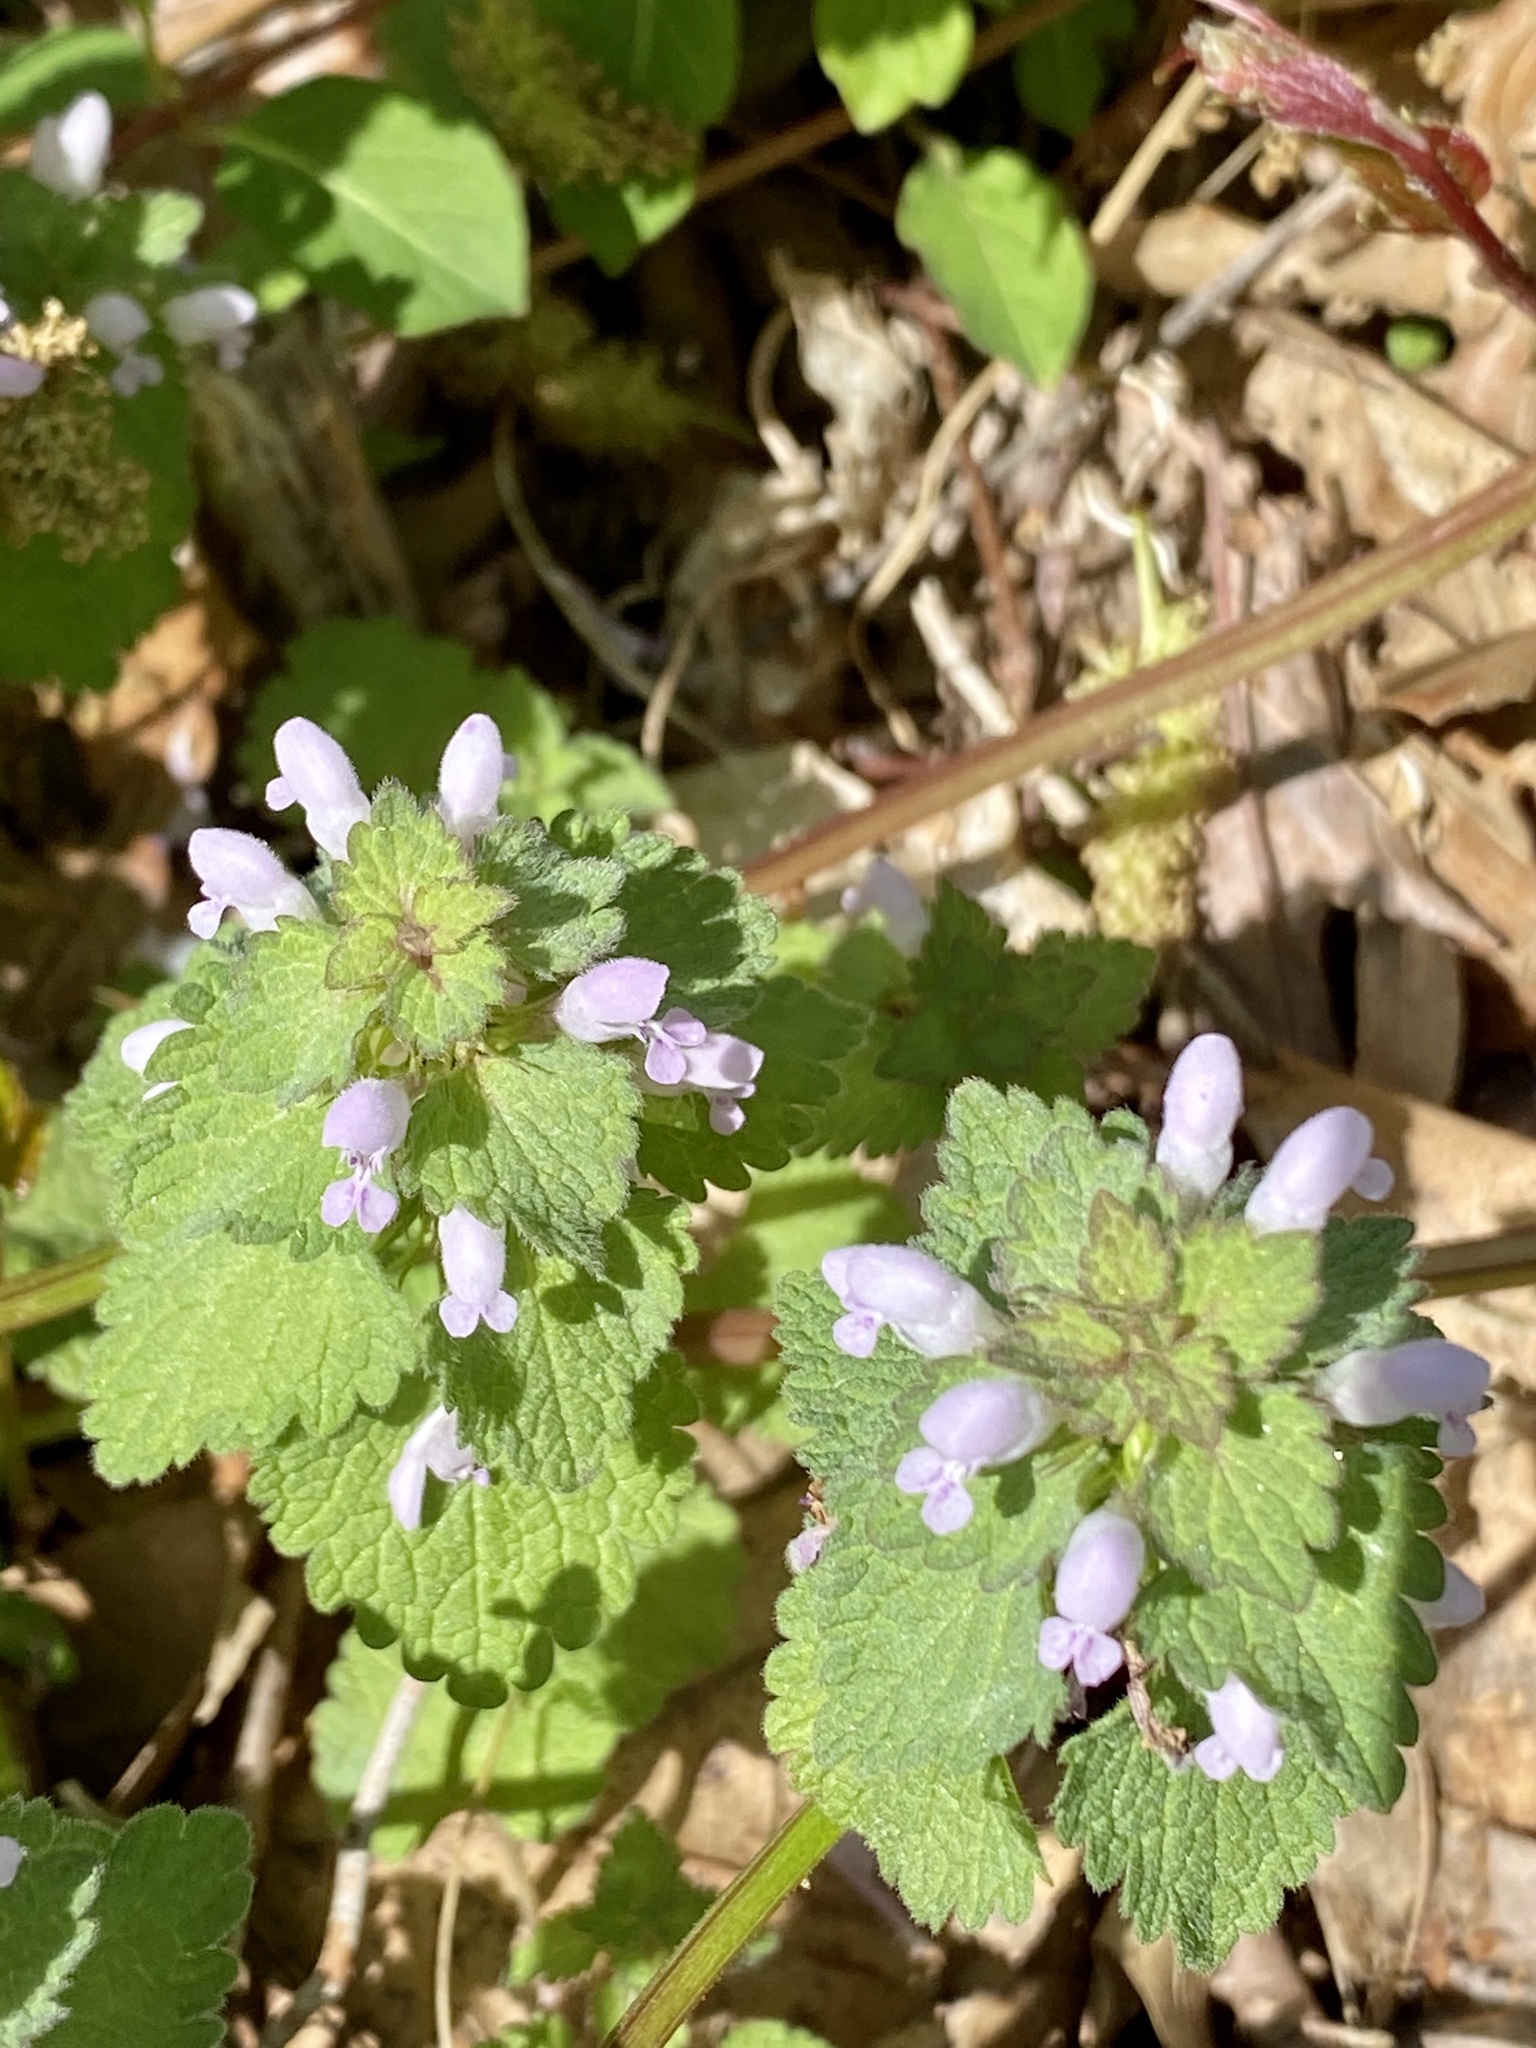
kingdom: Plantae
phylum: Tracheophyta
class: Magnoliopsida
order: Lamiales
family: Lamiaceae
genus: Lamium
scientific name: Lamium purpureum
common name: Red dead-nettle
